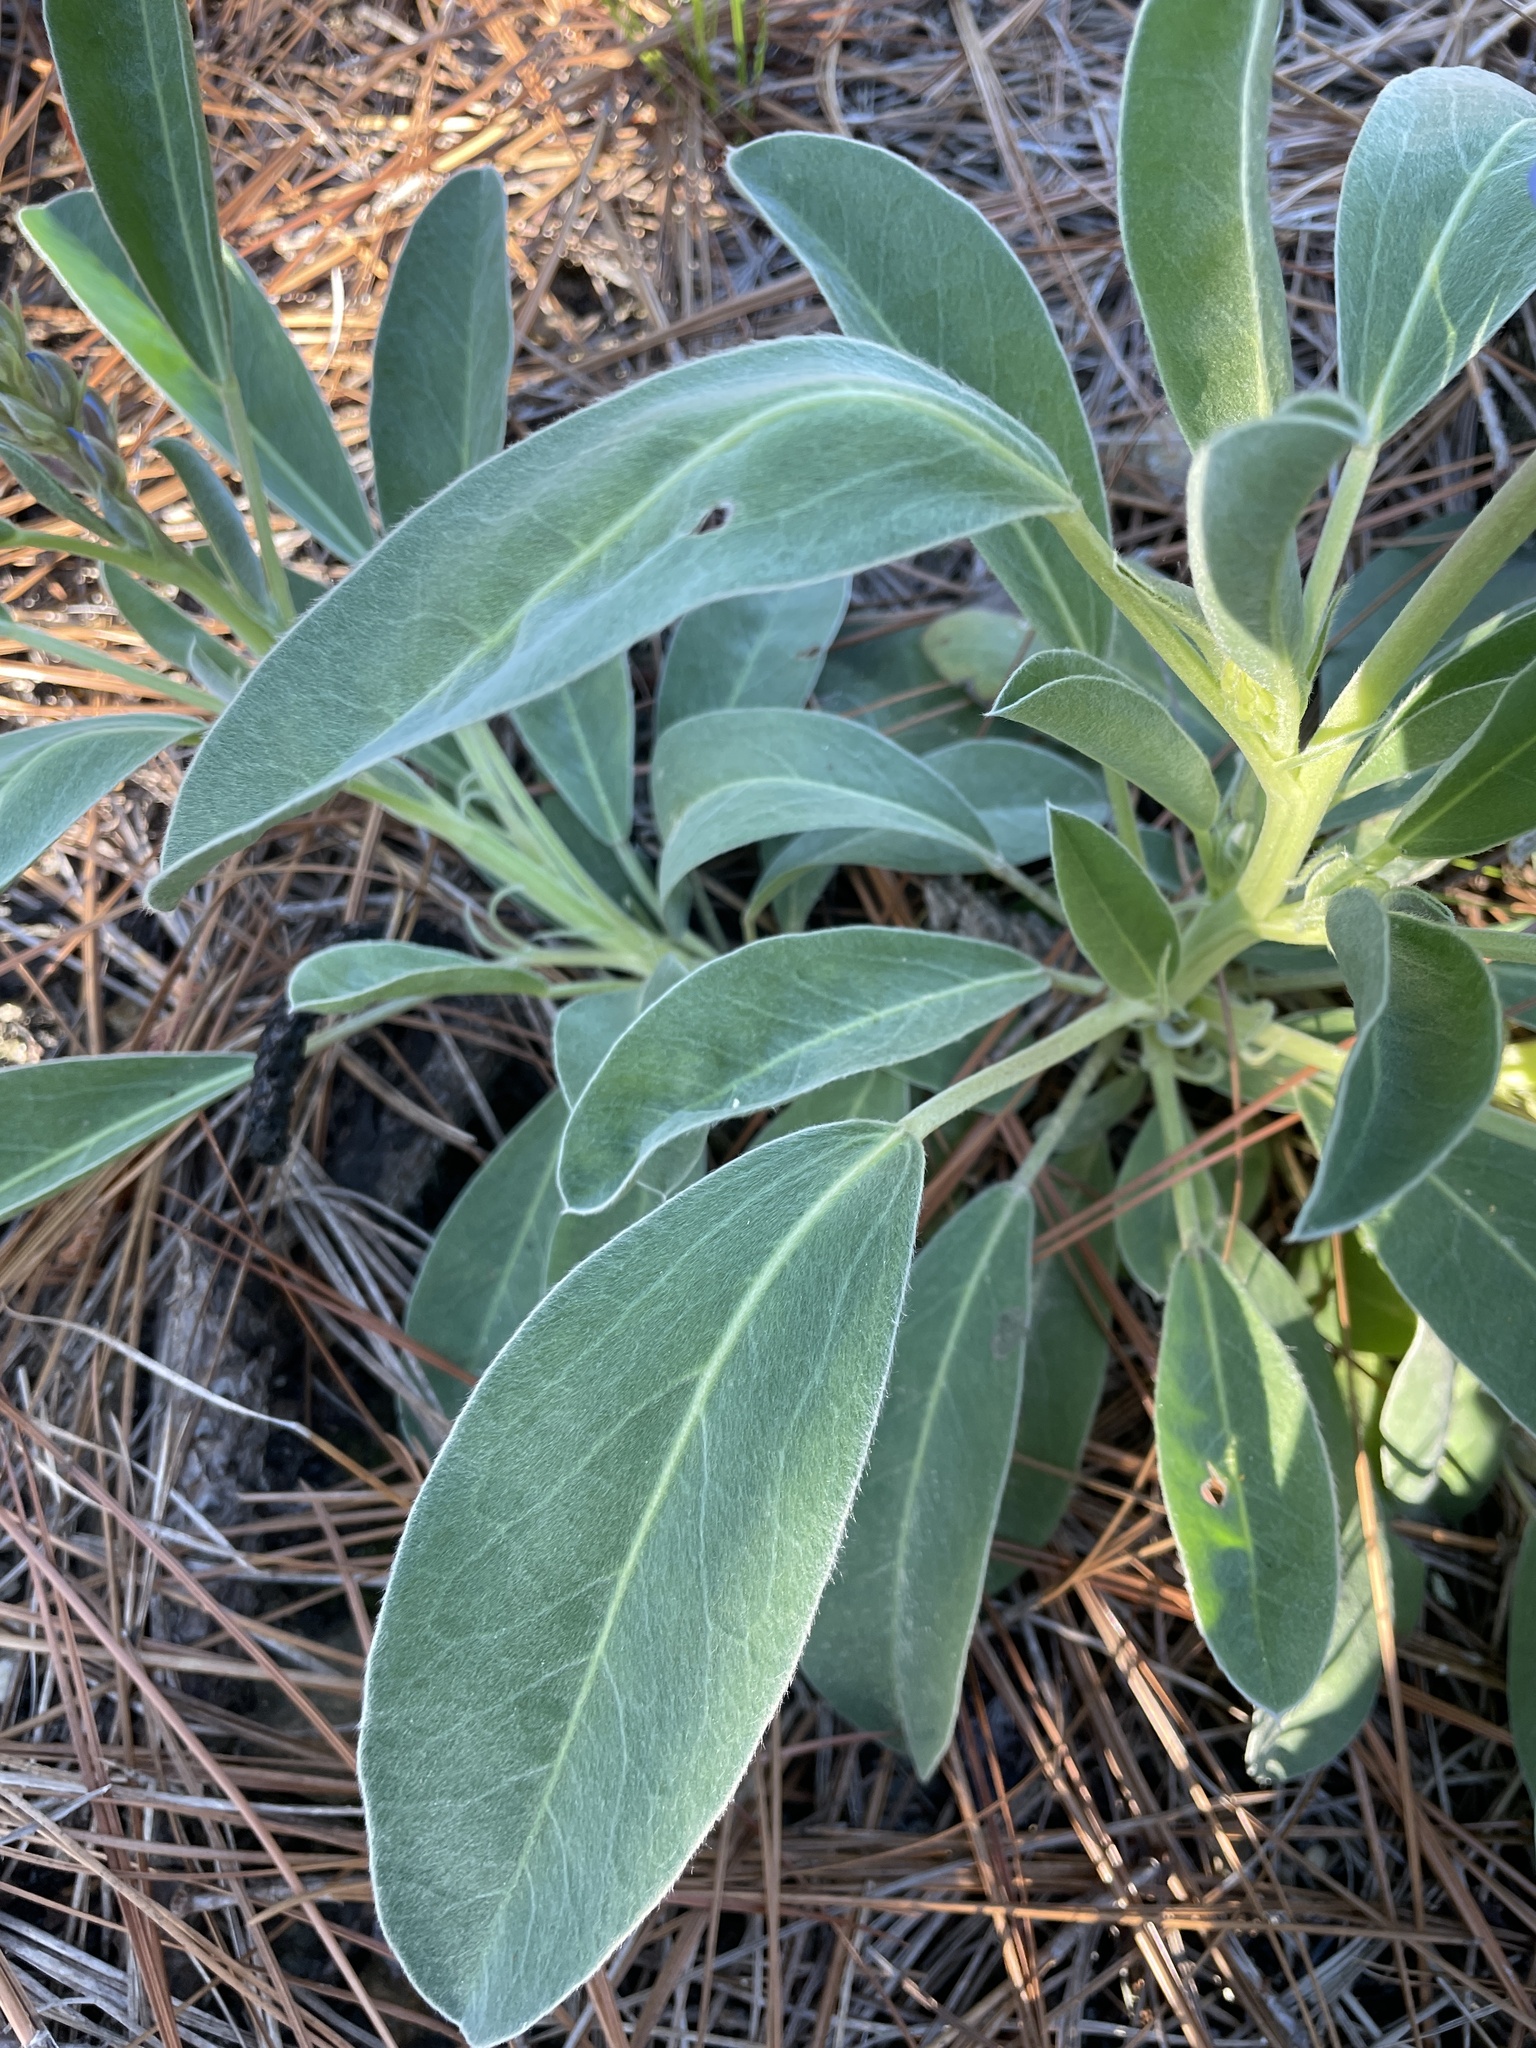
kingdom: Plantae
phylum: Tracheophyta
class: Magnoliopsida
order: Fabales
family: Fabaceae
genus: Lupinus
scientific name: Lupinus diffusus
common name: Oak ridge lupine
